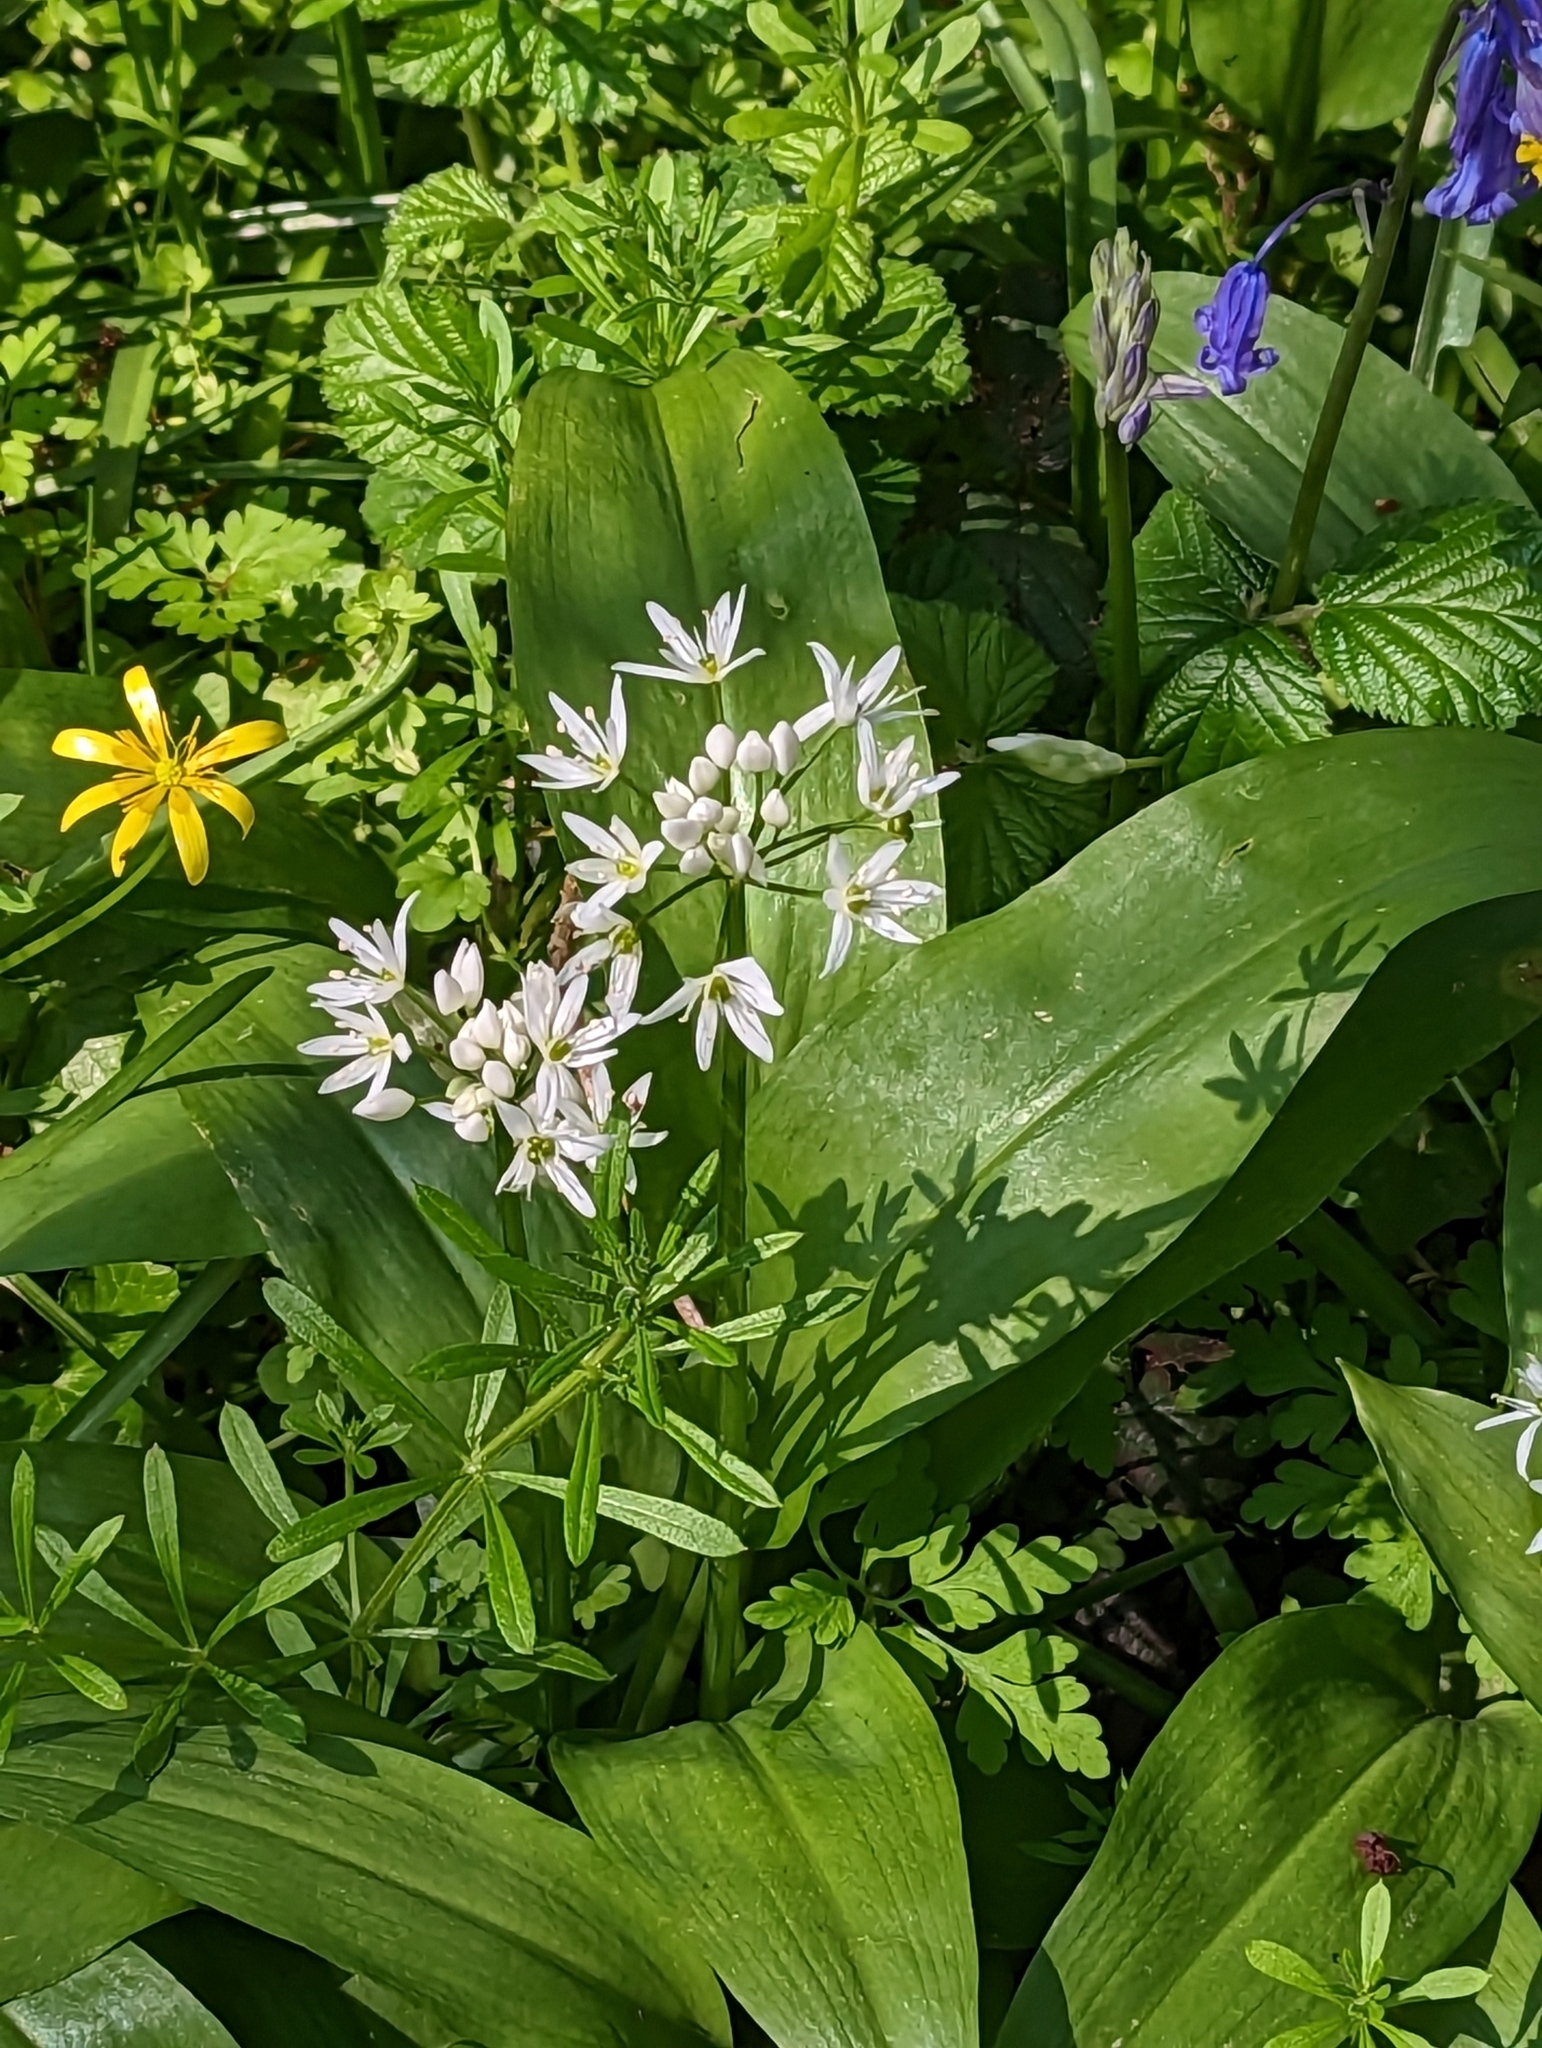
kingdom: Plantae
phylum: Tracheophyta
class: Liliopsida
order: Asparagales
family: Amaryllidaceae
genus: Allium
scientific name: Allium ursinum
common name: Ramsons
